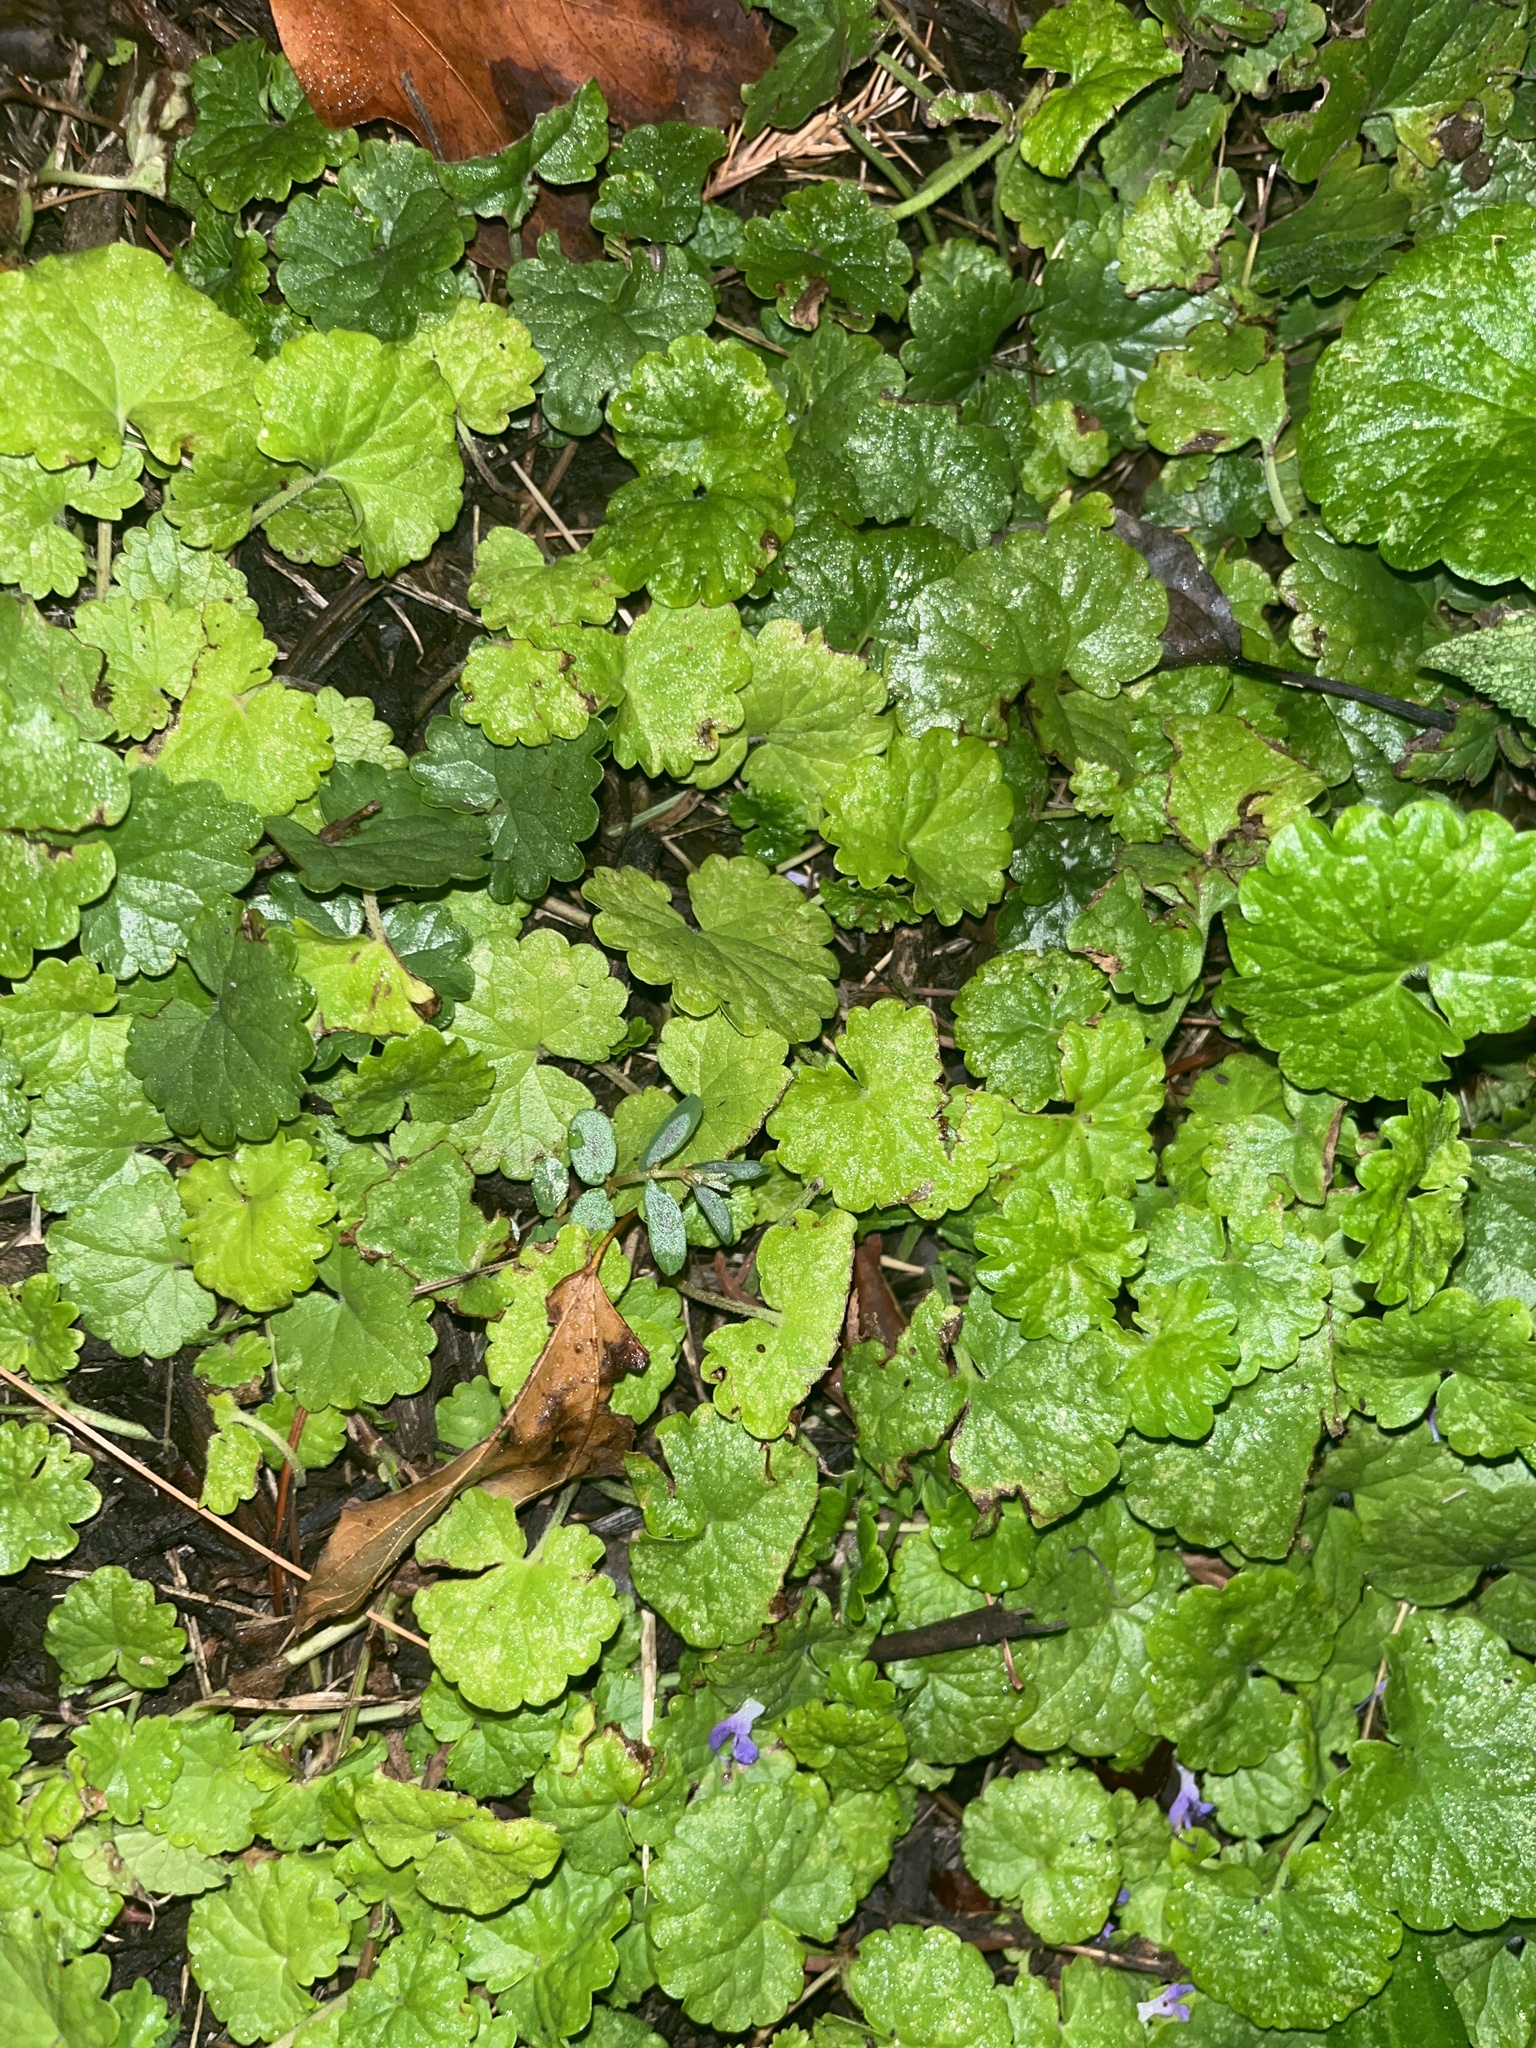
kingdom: Plantae
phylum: Tracheophyta
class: Magnoliopsida
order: Lamiales
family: Lamiaceae
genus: Glechoma
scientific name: Glechoma hederacea
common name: Ground ivy
